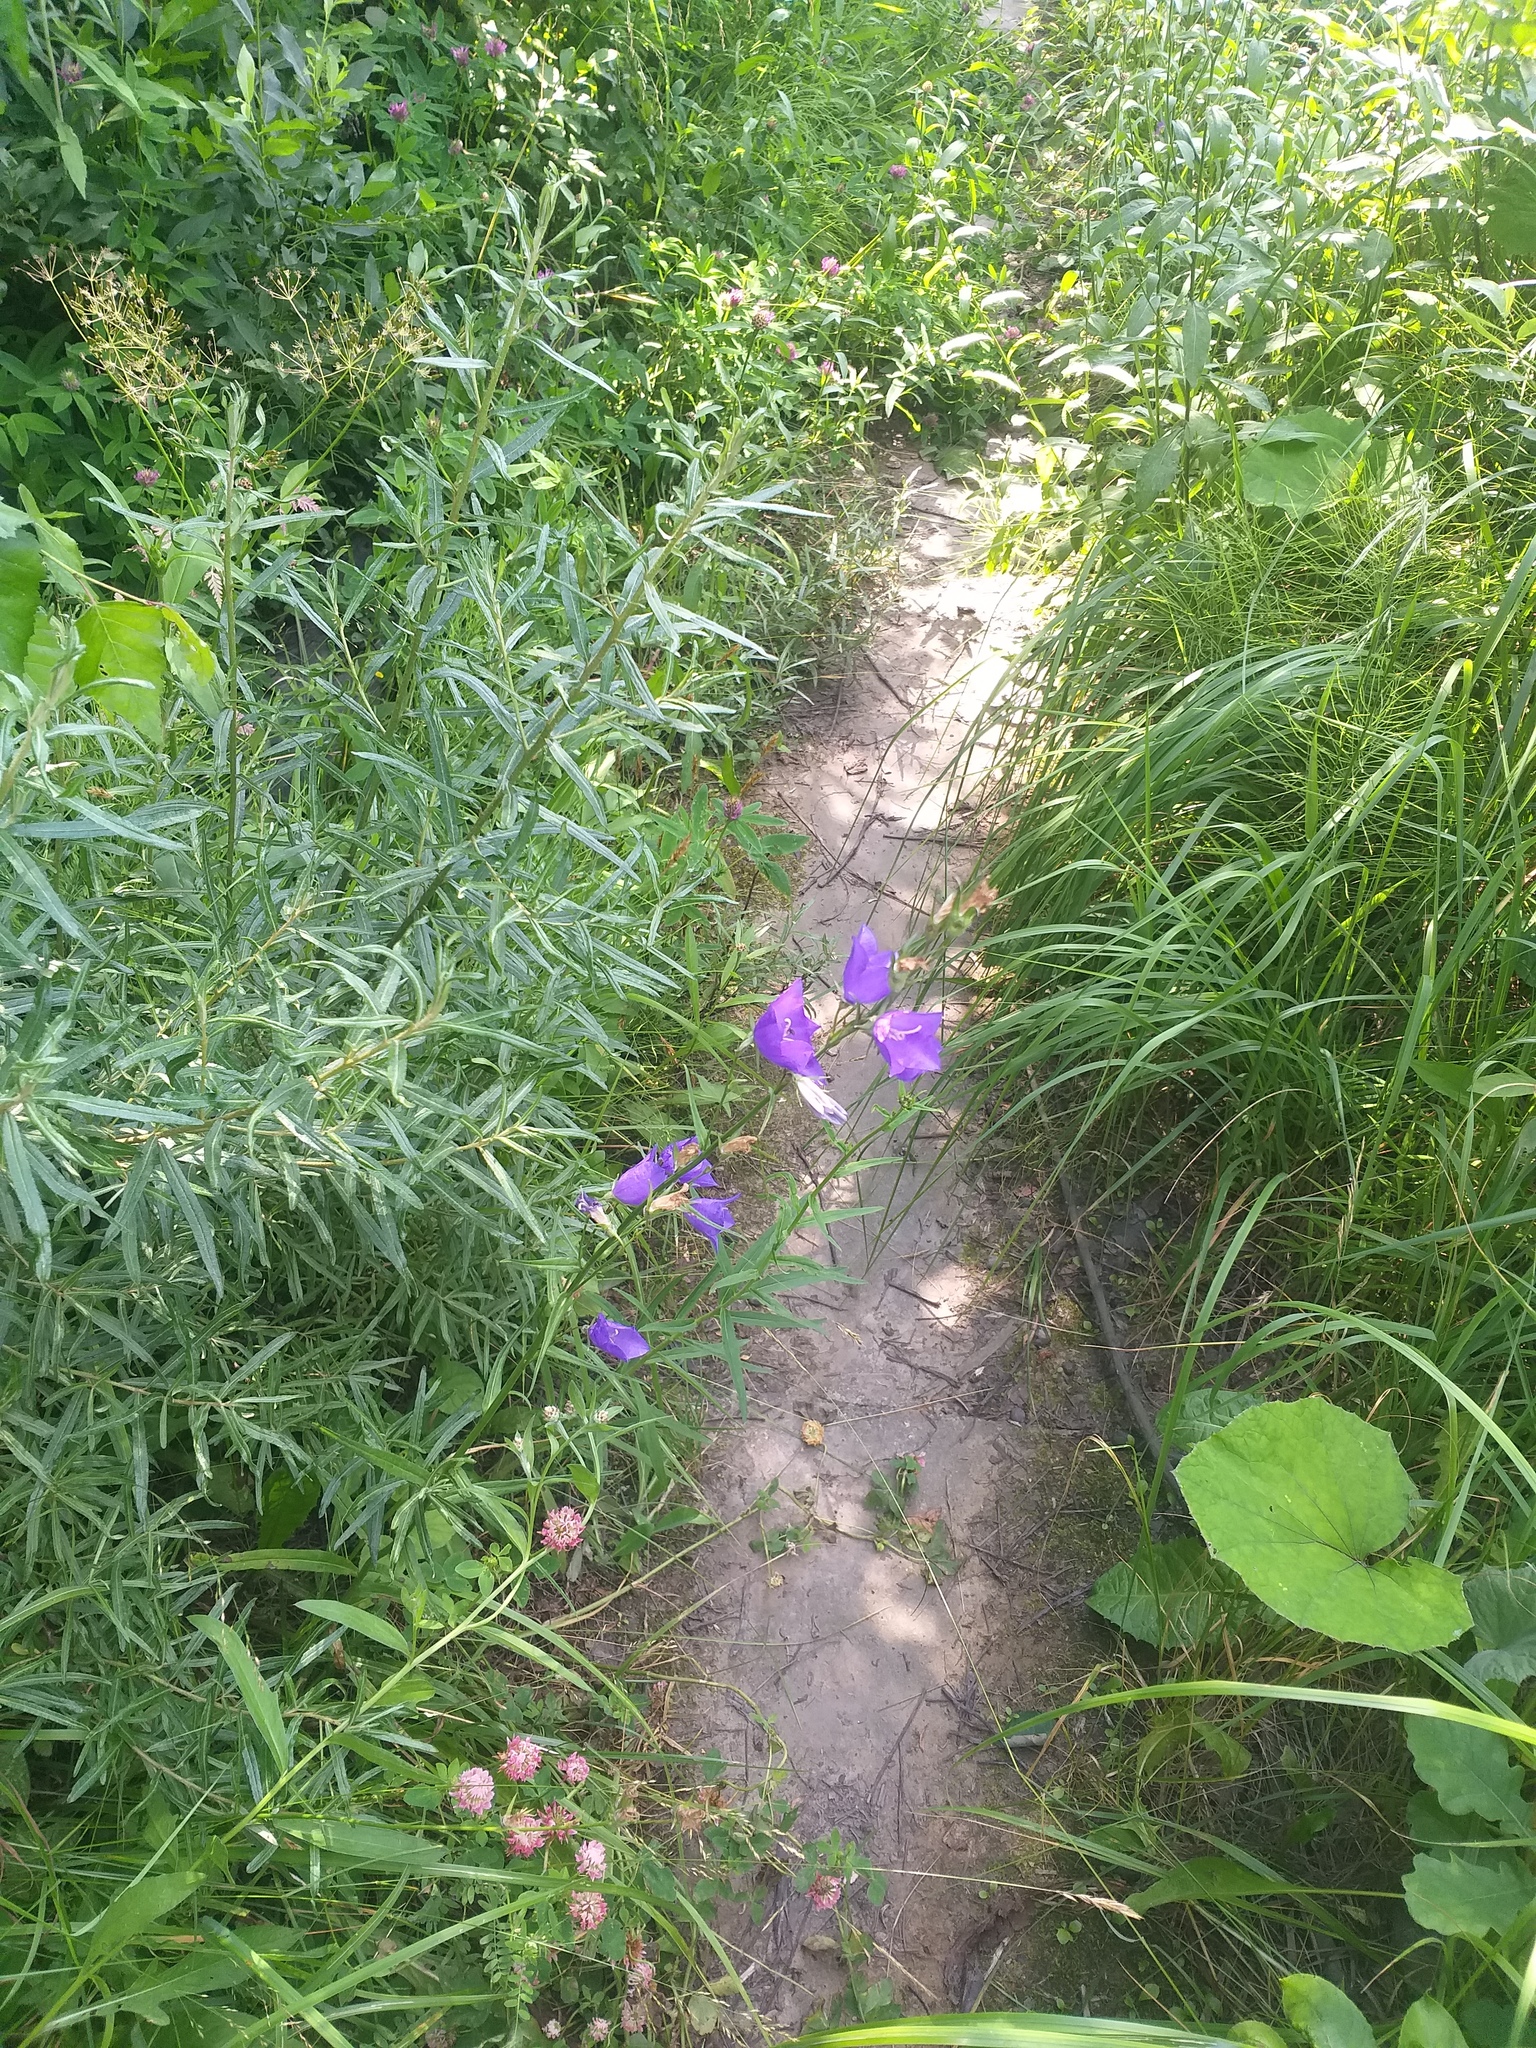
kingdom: Plantae
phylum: Tracheophyta
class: Magnoliopsida
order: Asterales
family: Campanulaceae
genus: Campanula
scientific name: Campanula persicifolia
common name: Peach-leaved bellflower
